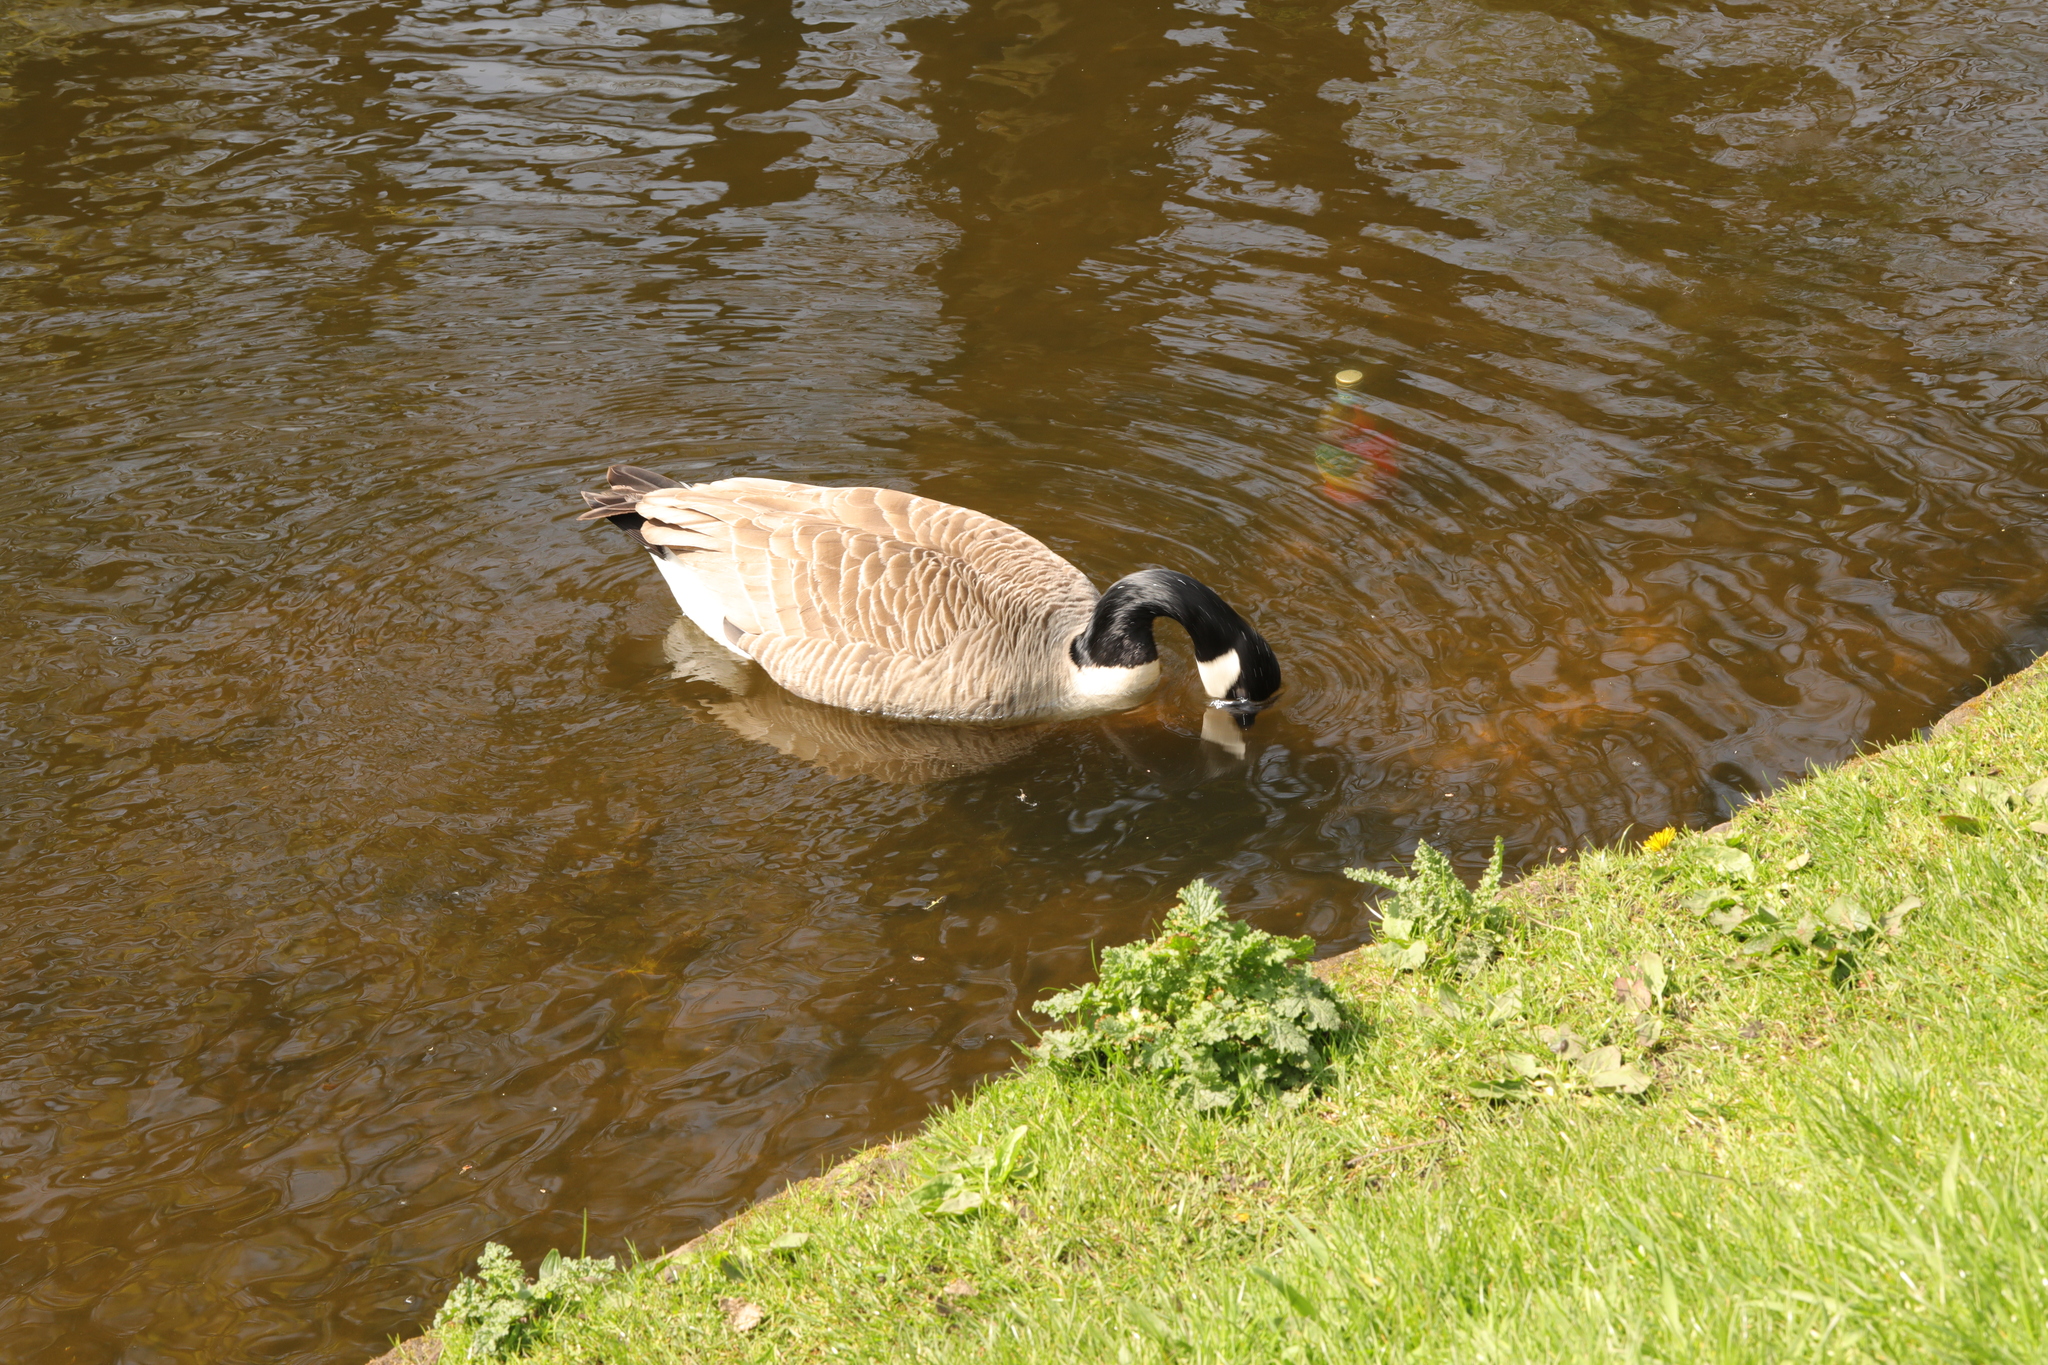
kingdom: Animalia
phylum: Chordata
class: Aves
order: Anseriformes
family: Anatidae
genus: Branta
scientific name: Branta canadensis
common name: Canada goose
